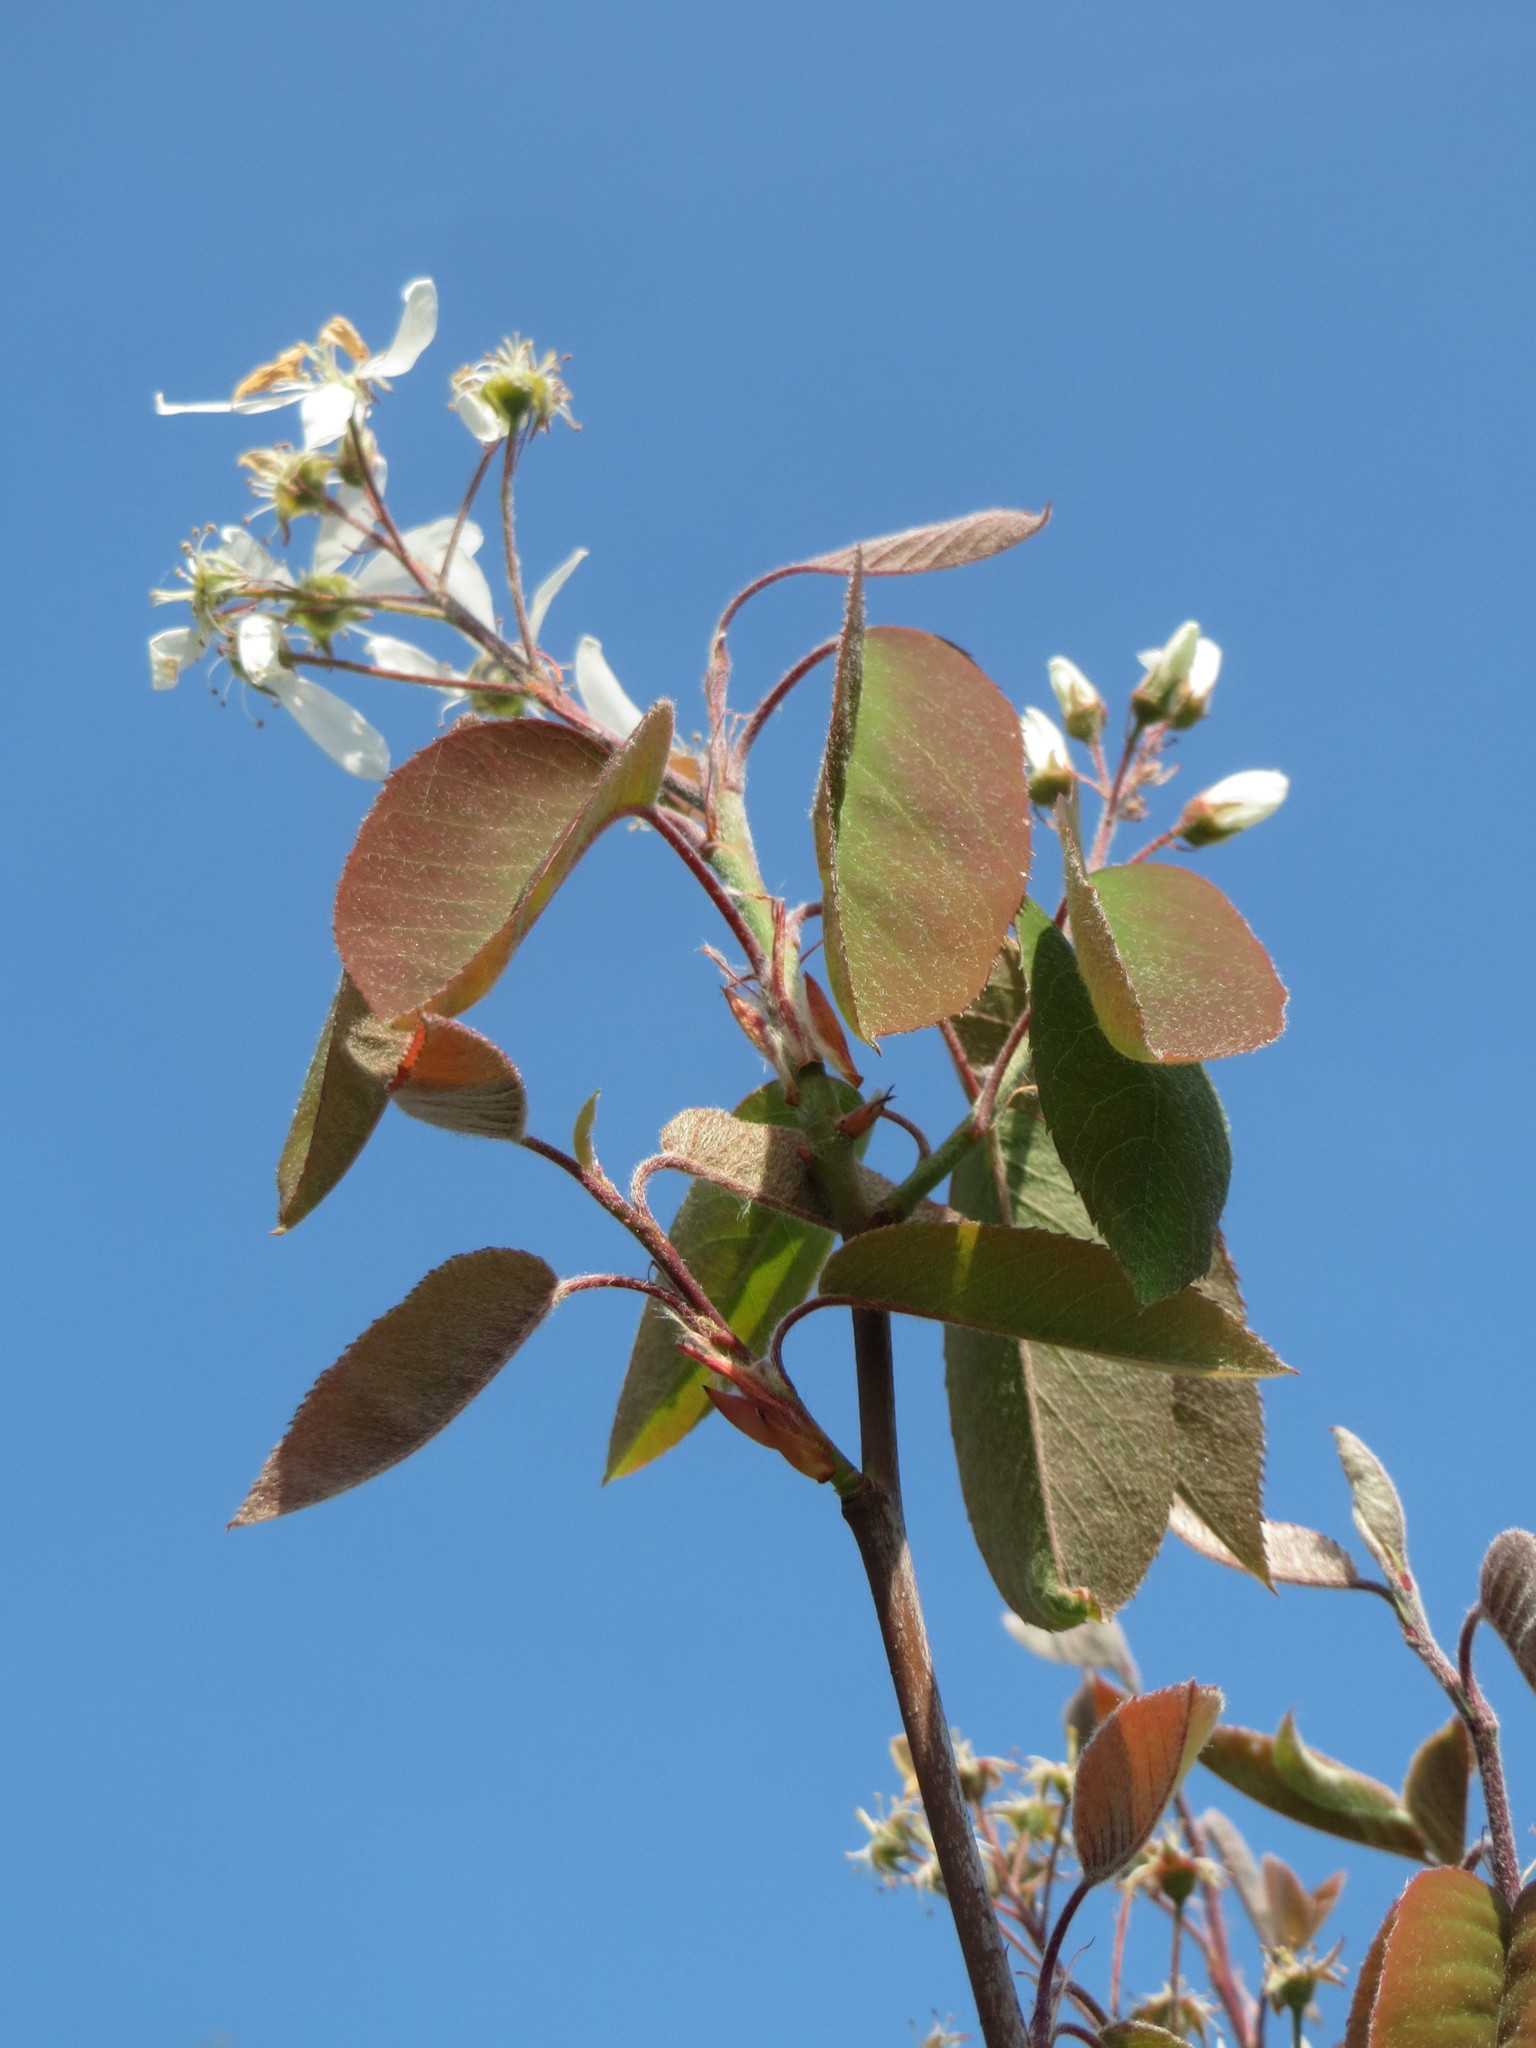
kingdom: Plantae
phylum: Tracheophyta
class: Magnoliopsida
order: Rosales
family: Rosaceae
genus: Amelanchier
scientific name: Amelanchier lamarckii
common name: Juneberry
